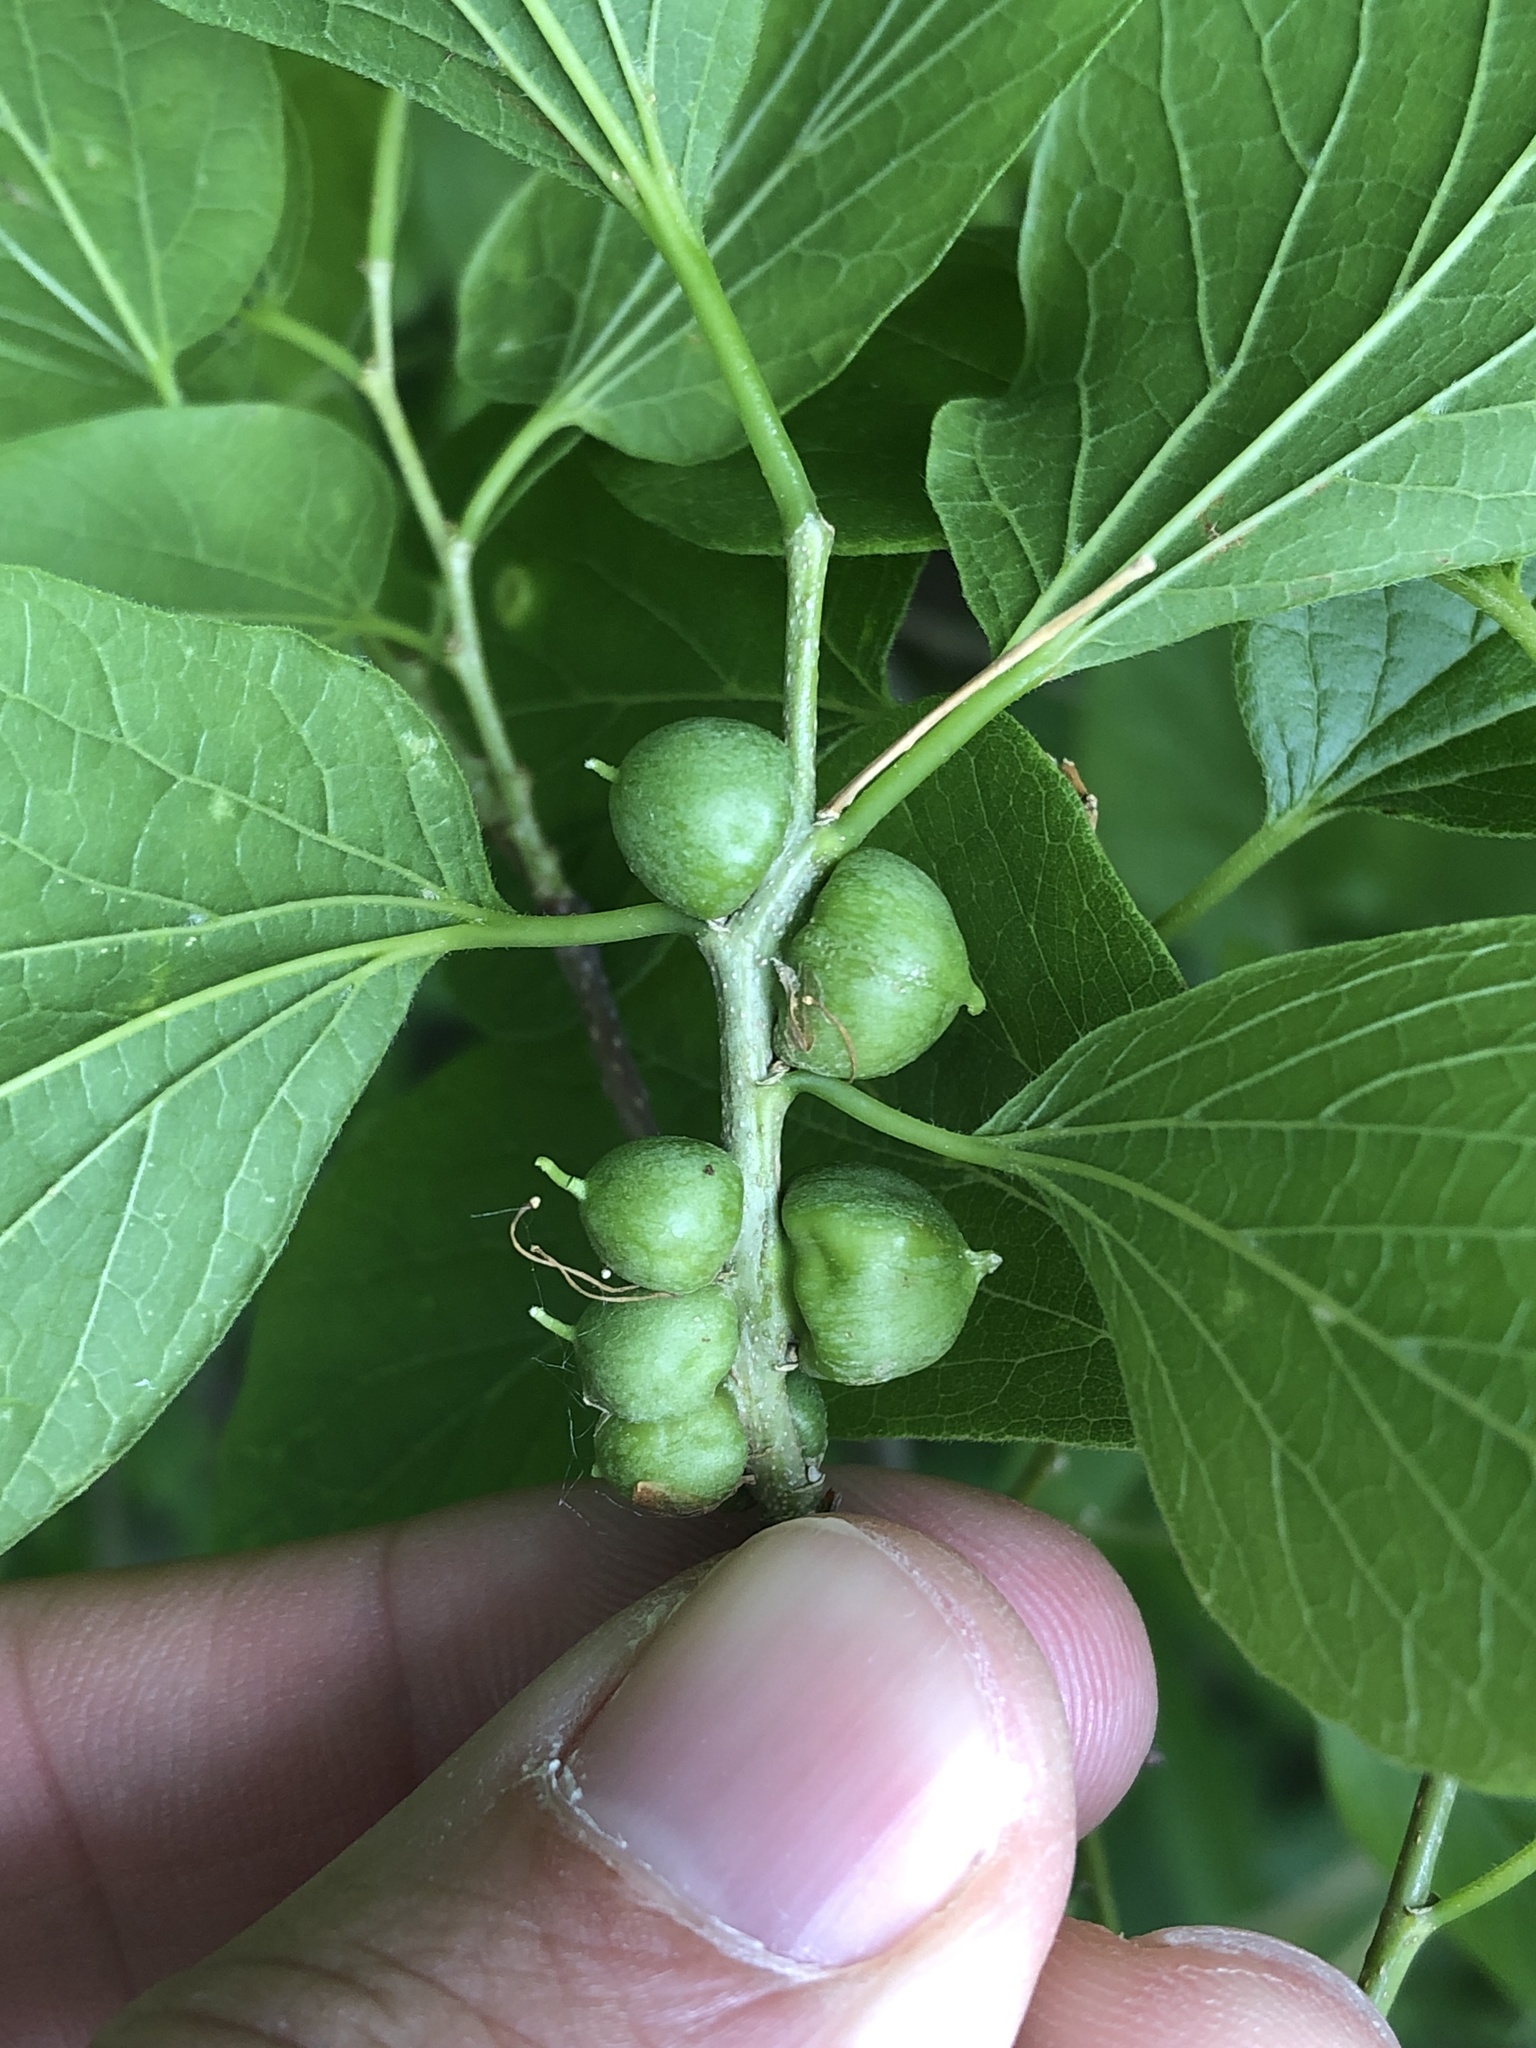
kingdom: Animalia
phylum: Arthropoda
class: Insecta
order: Diptera
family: Cecidomyiidae
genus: Celticecis
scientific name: Celticecis connata
